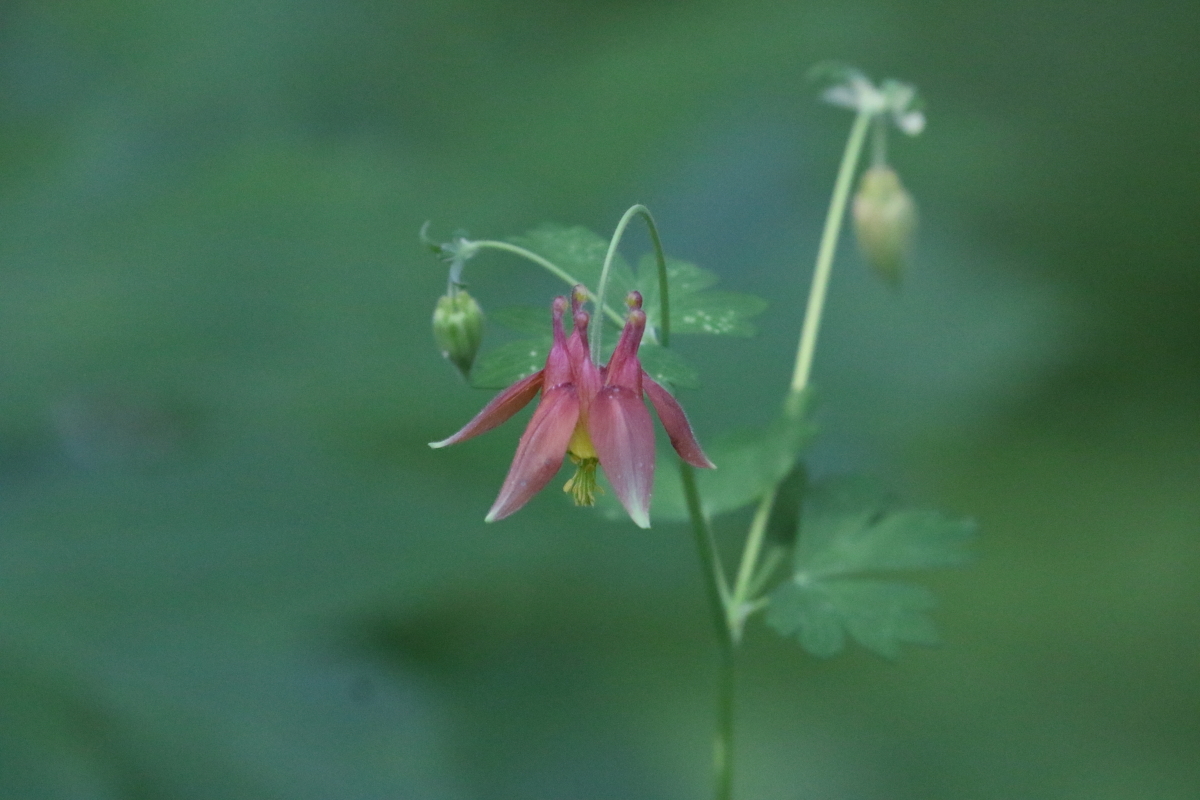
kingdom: Plantae
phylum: Tracheophyta
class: Magnoliopsida
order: Ranunculales
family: Ranunculaceae
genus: Aquilegia
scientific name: Aquilegia formosa
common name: Sitka columbine
